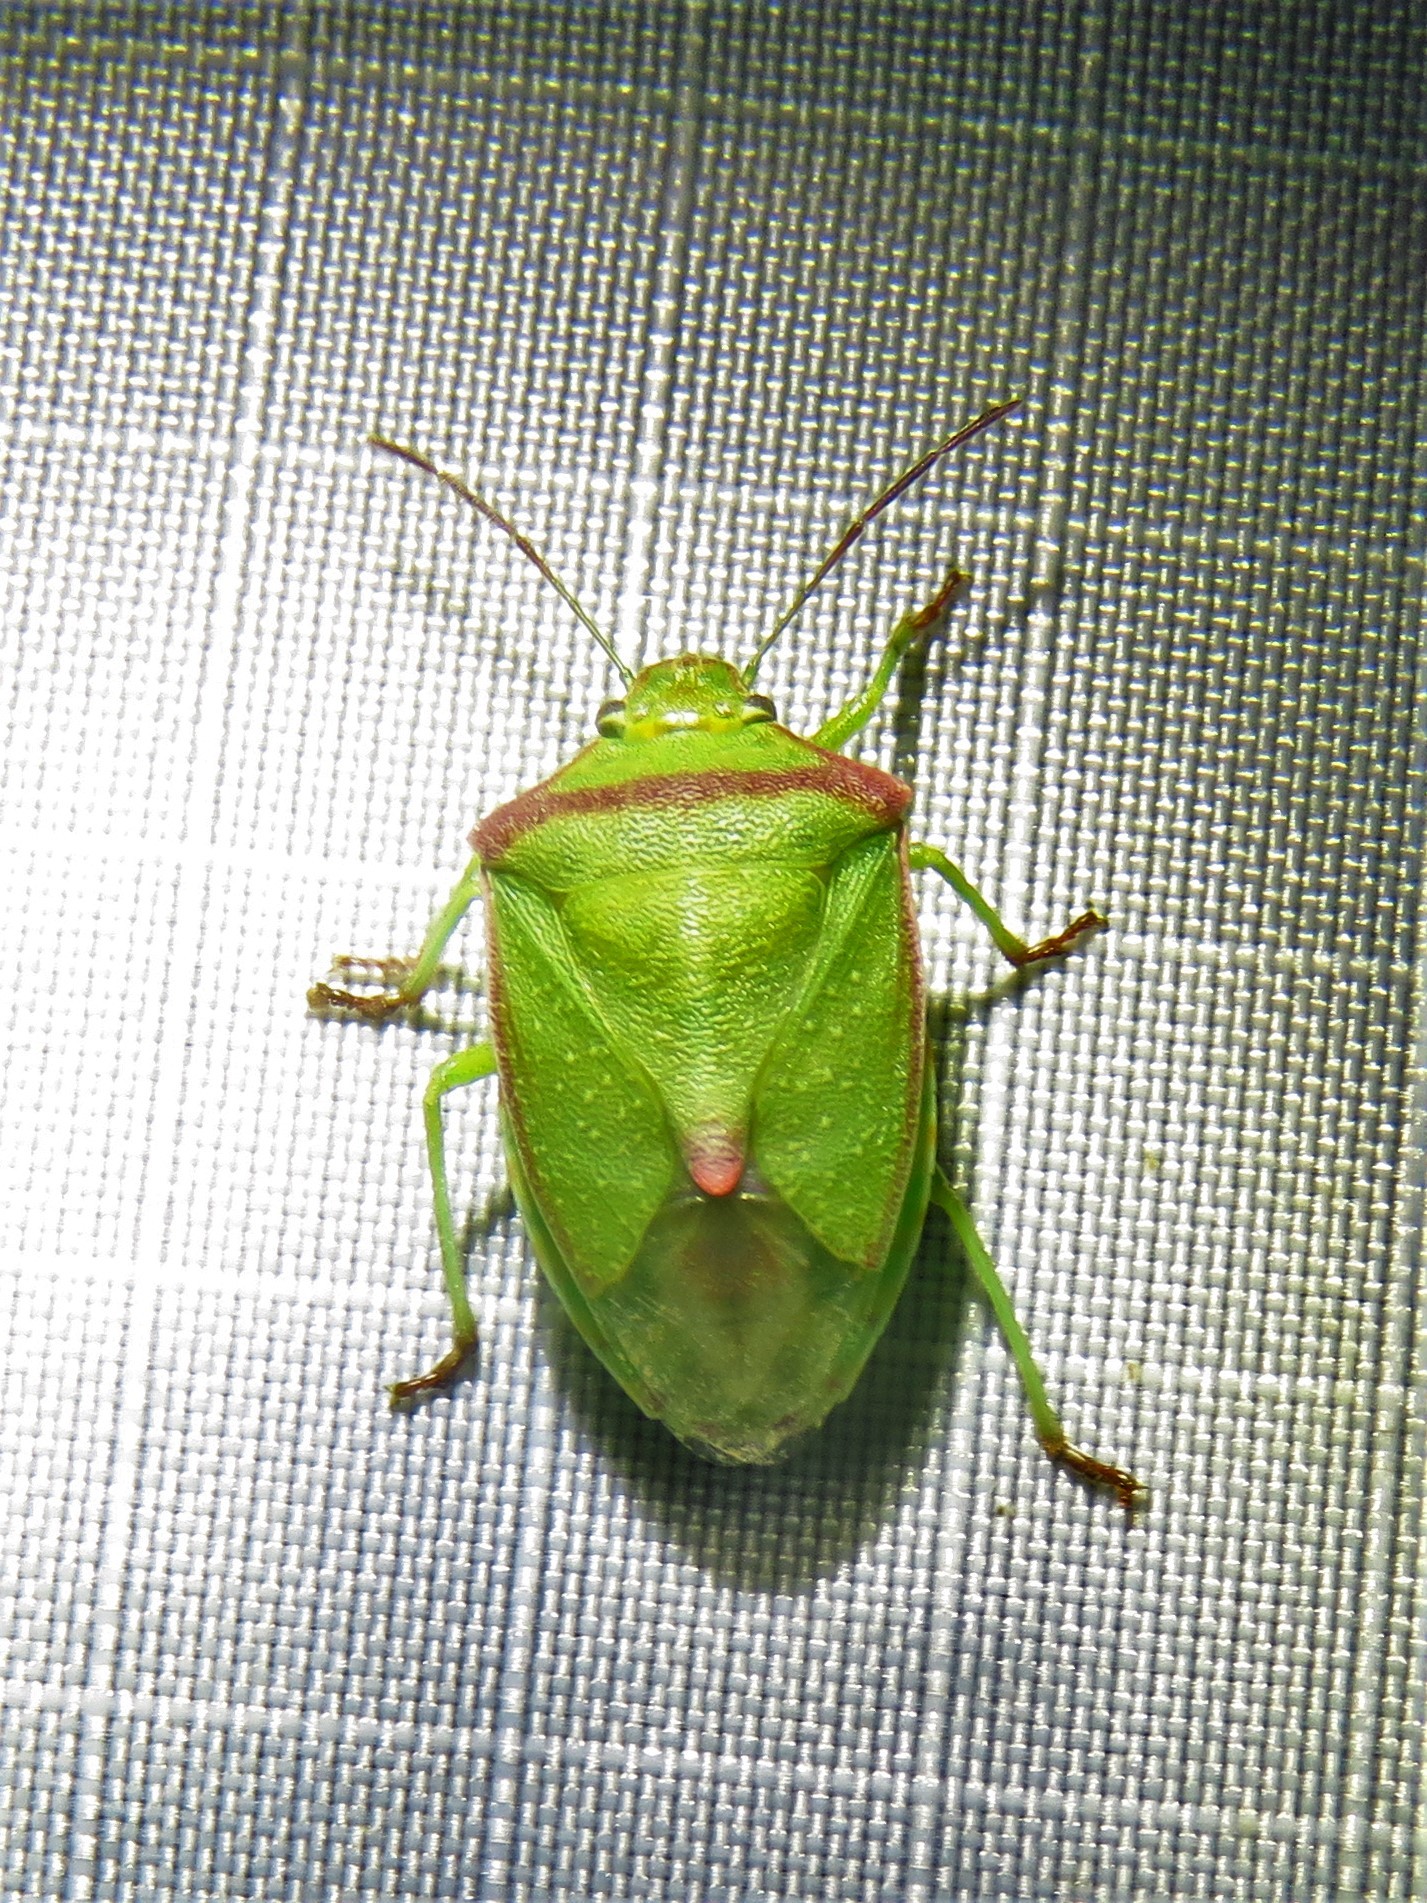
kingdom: Animalia
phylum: Arthropoda
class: Insecta
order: Hemiptera
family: Pentatomidae
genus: Thyanta
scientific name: Thyanta custator
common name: Stink bug
